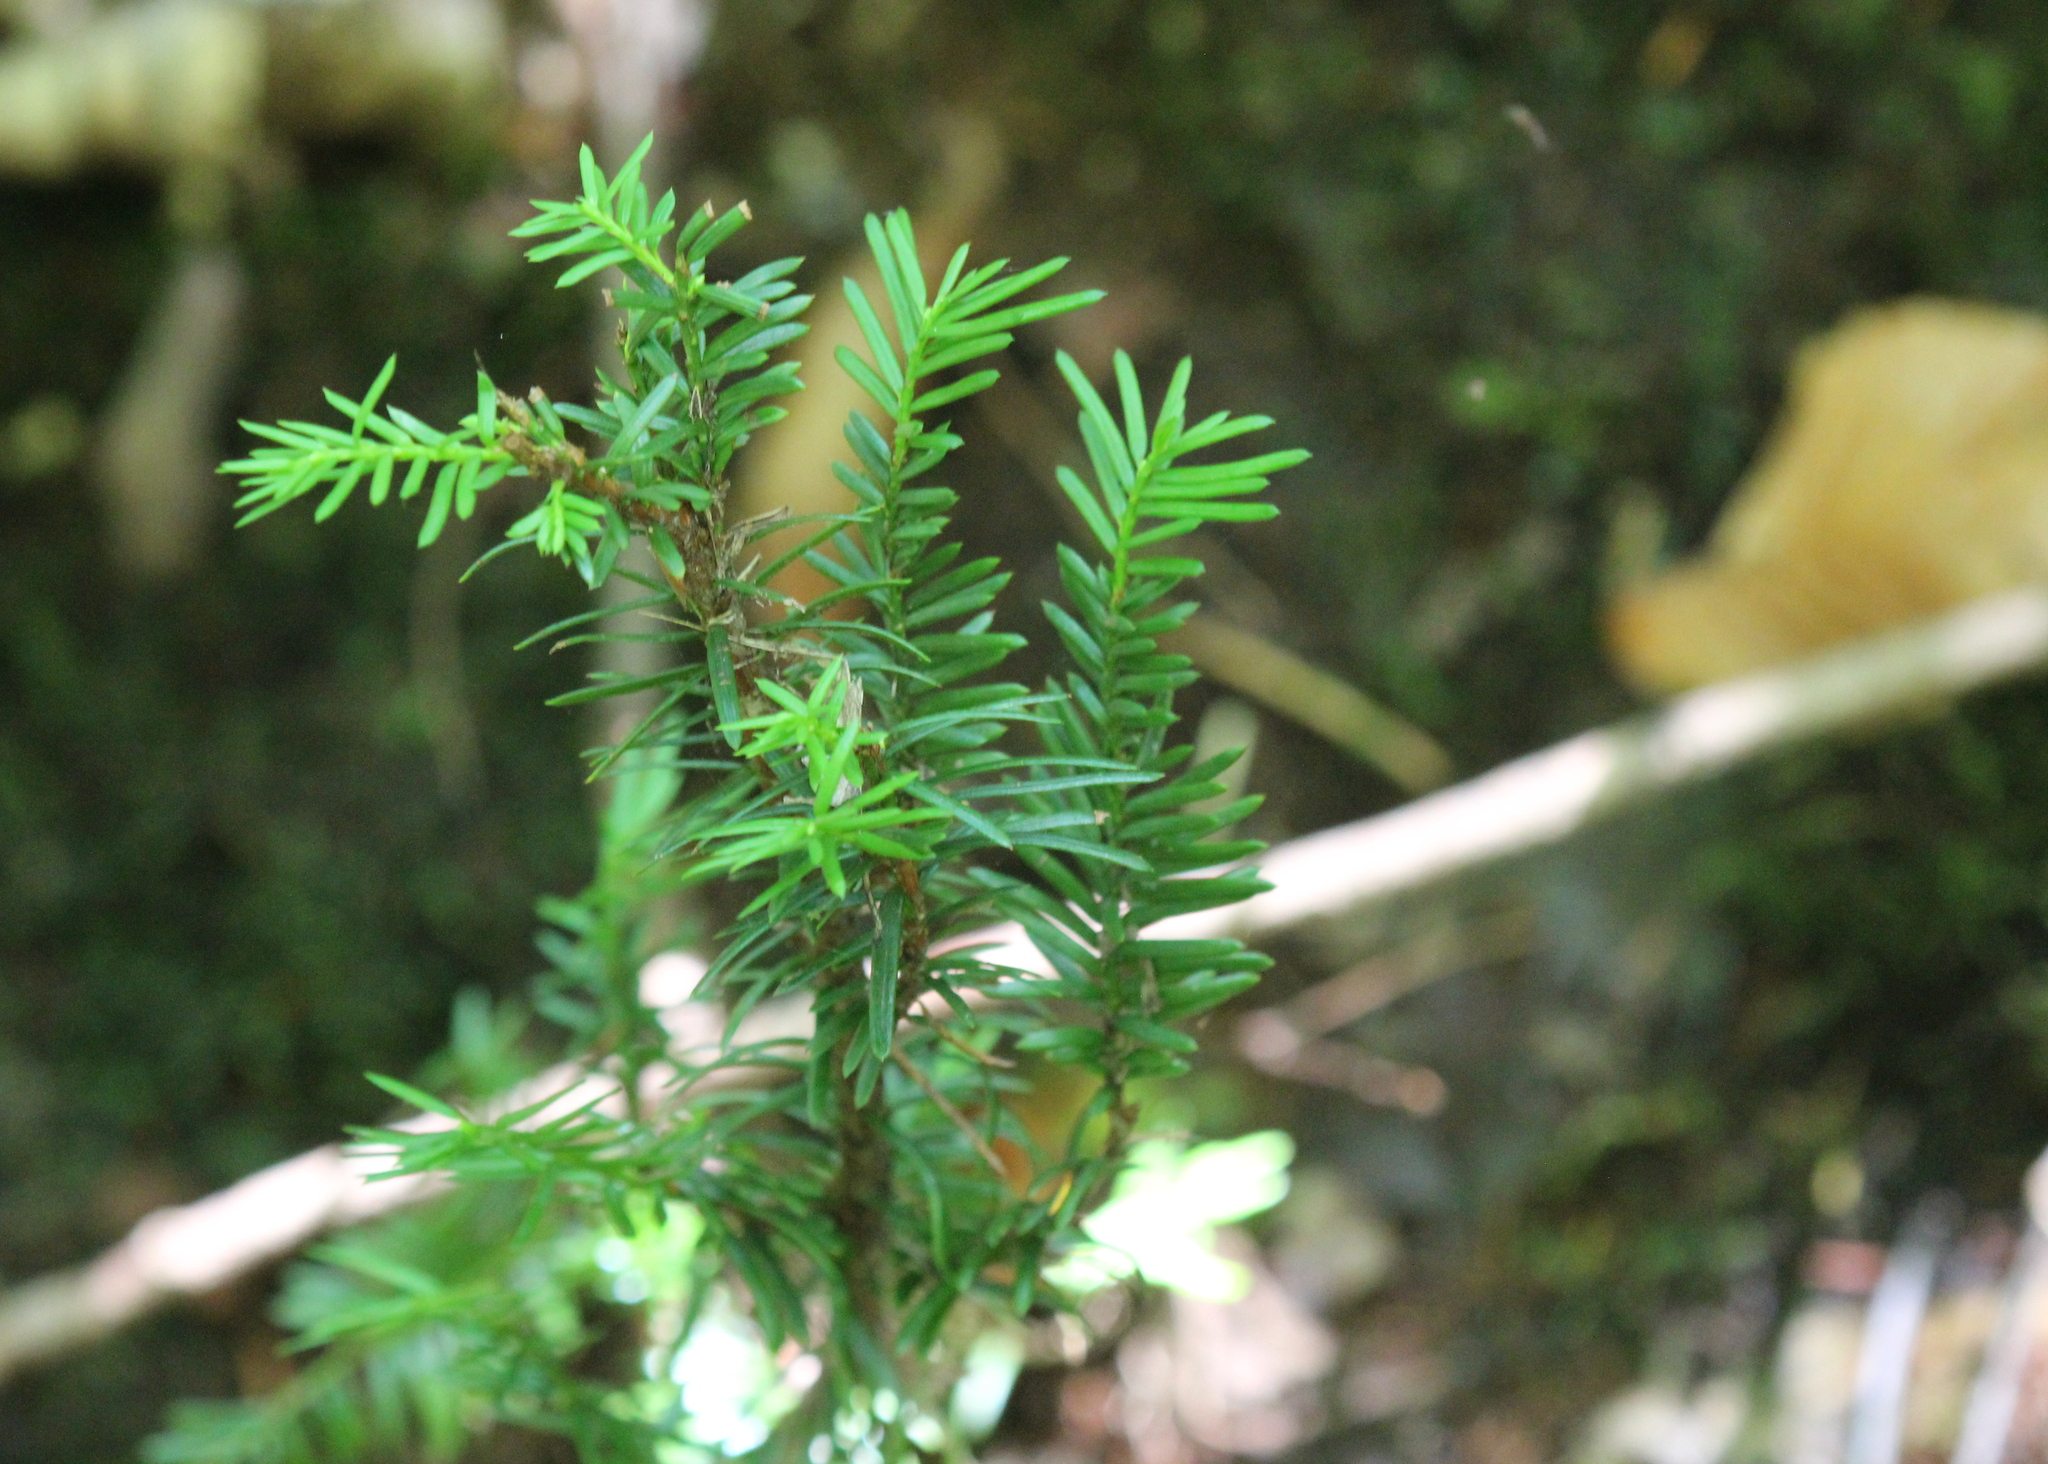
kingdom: Plantae
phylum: Tracheophyta
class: Pinopsida
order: Pinales
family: Taxaceae
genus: Taxus
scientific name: Taxus canadensis
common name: American yew
